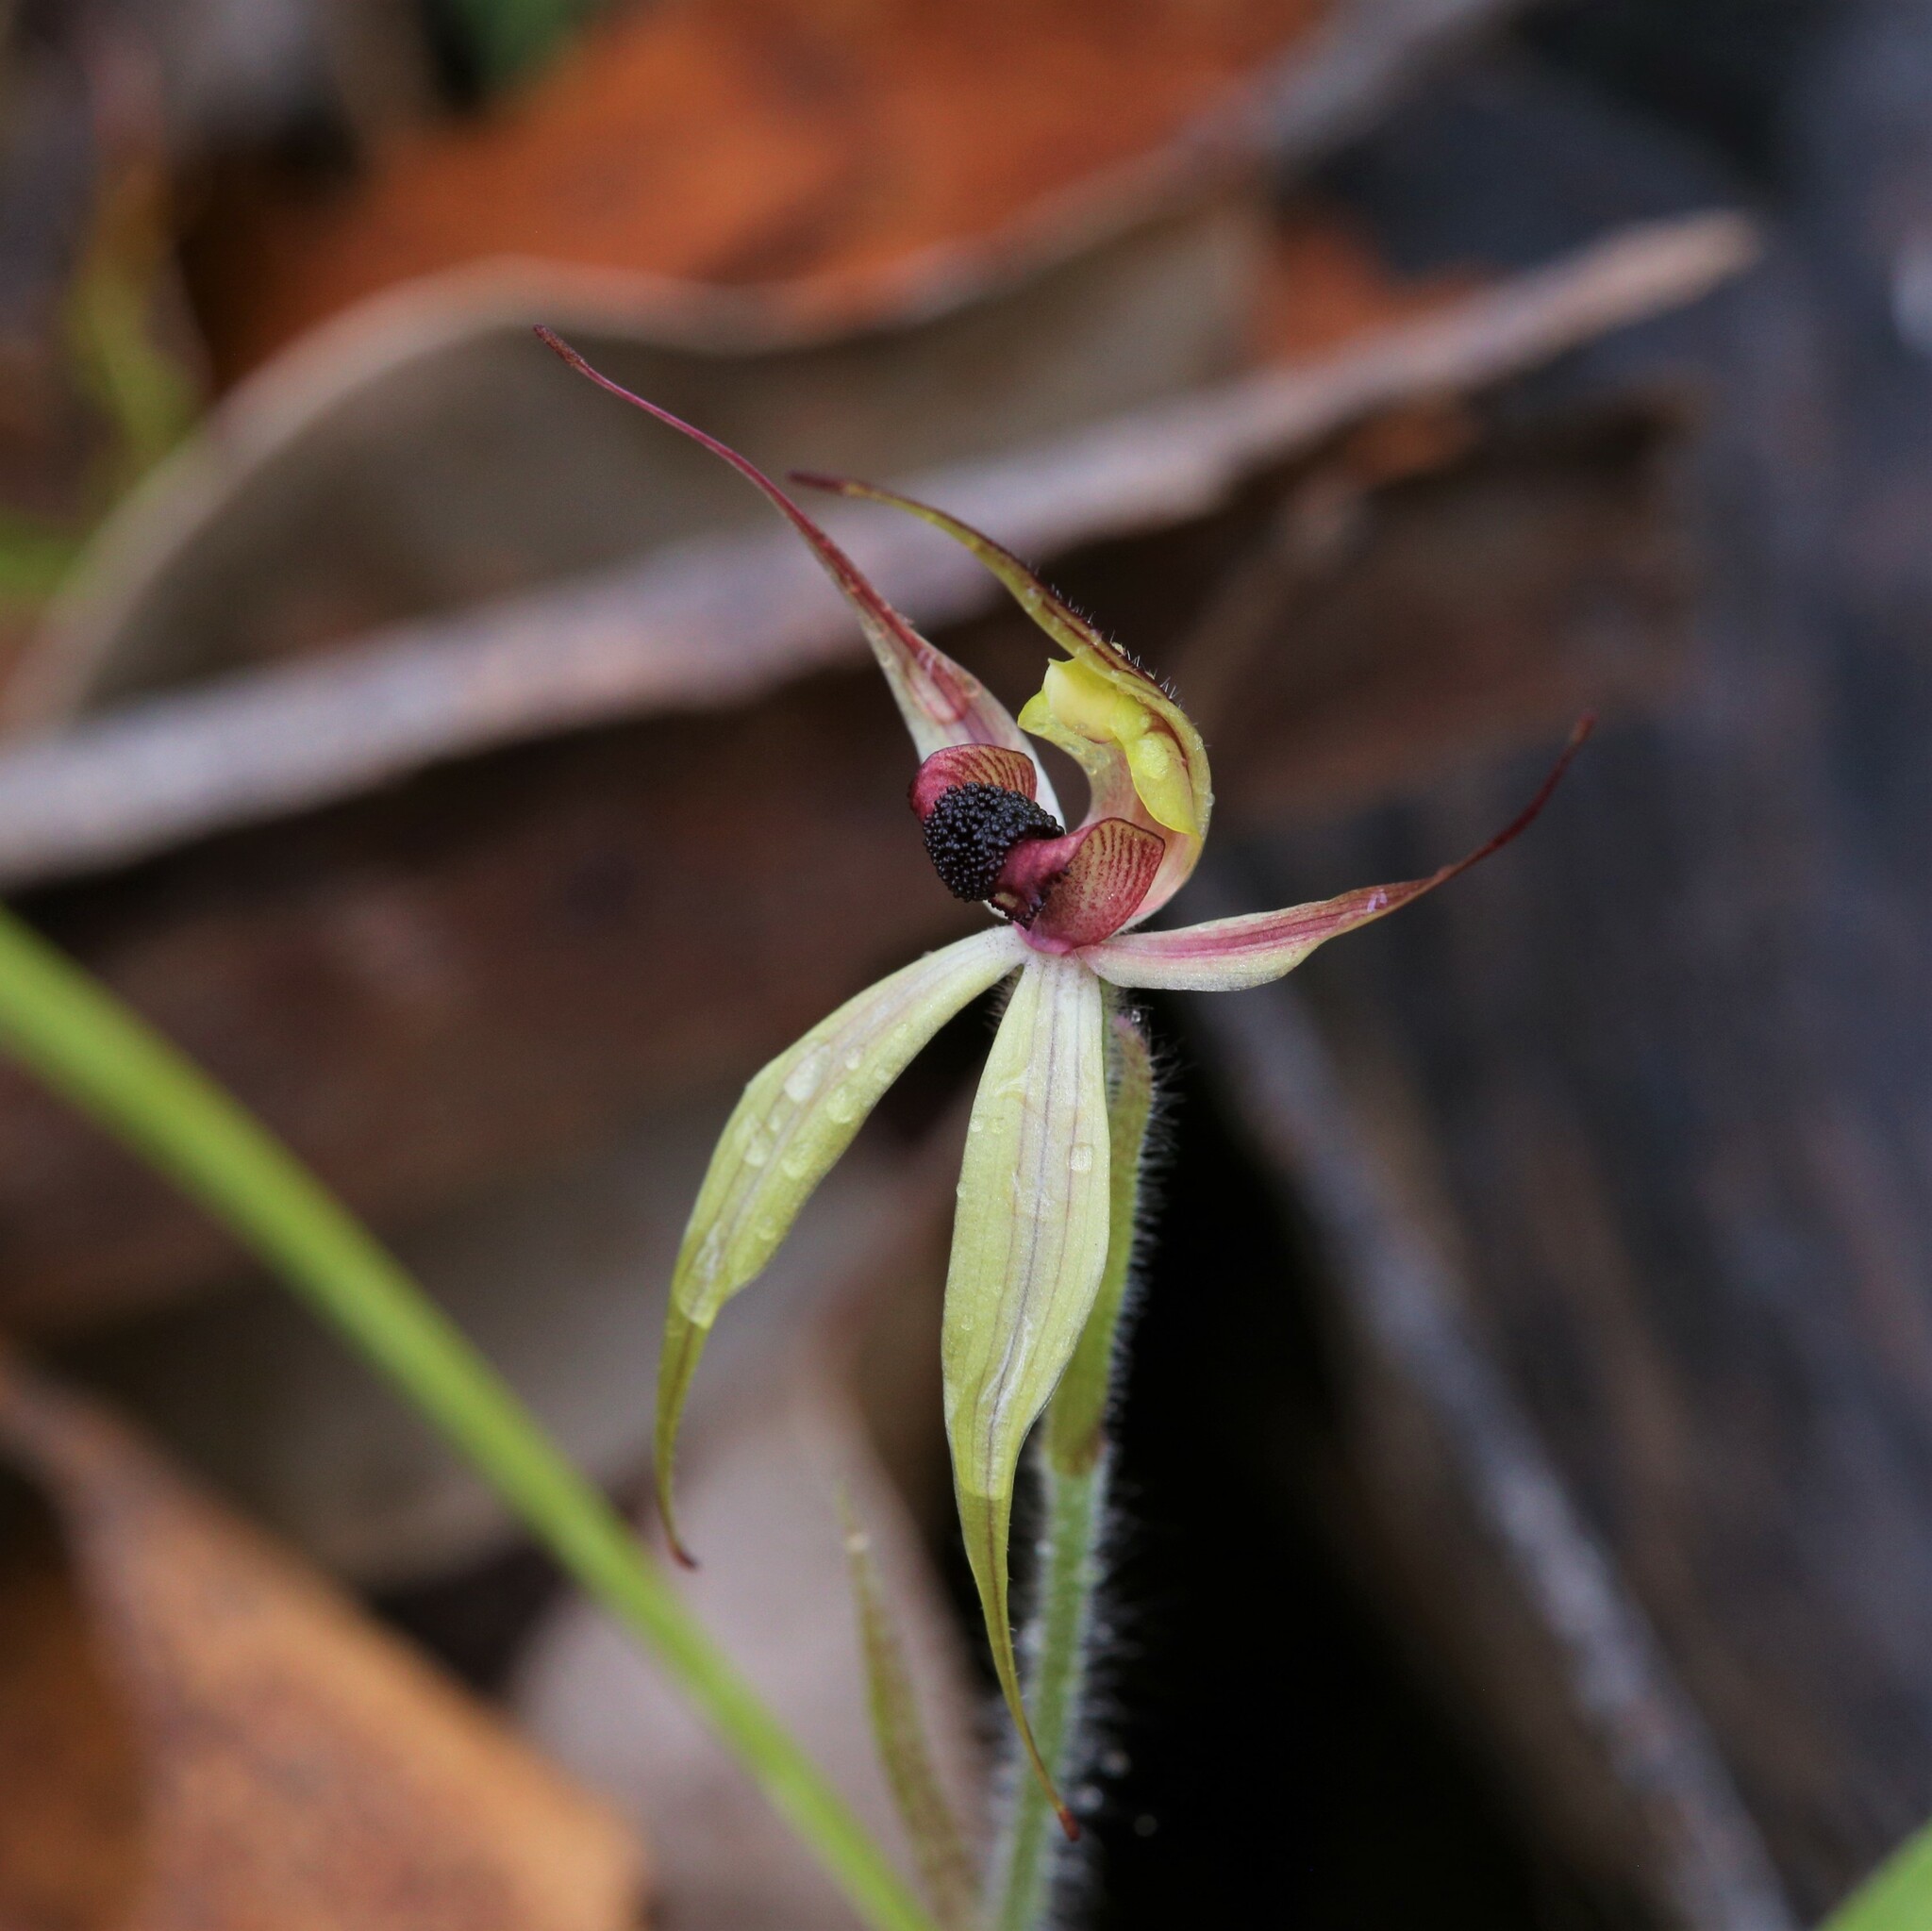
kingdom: Plantae
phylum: Tracheophyta
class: Liliopsida
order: Asparagales
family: Orchidaceae
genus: Caladenia
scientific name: Caladenia macrostylis
